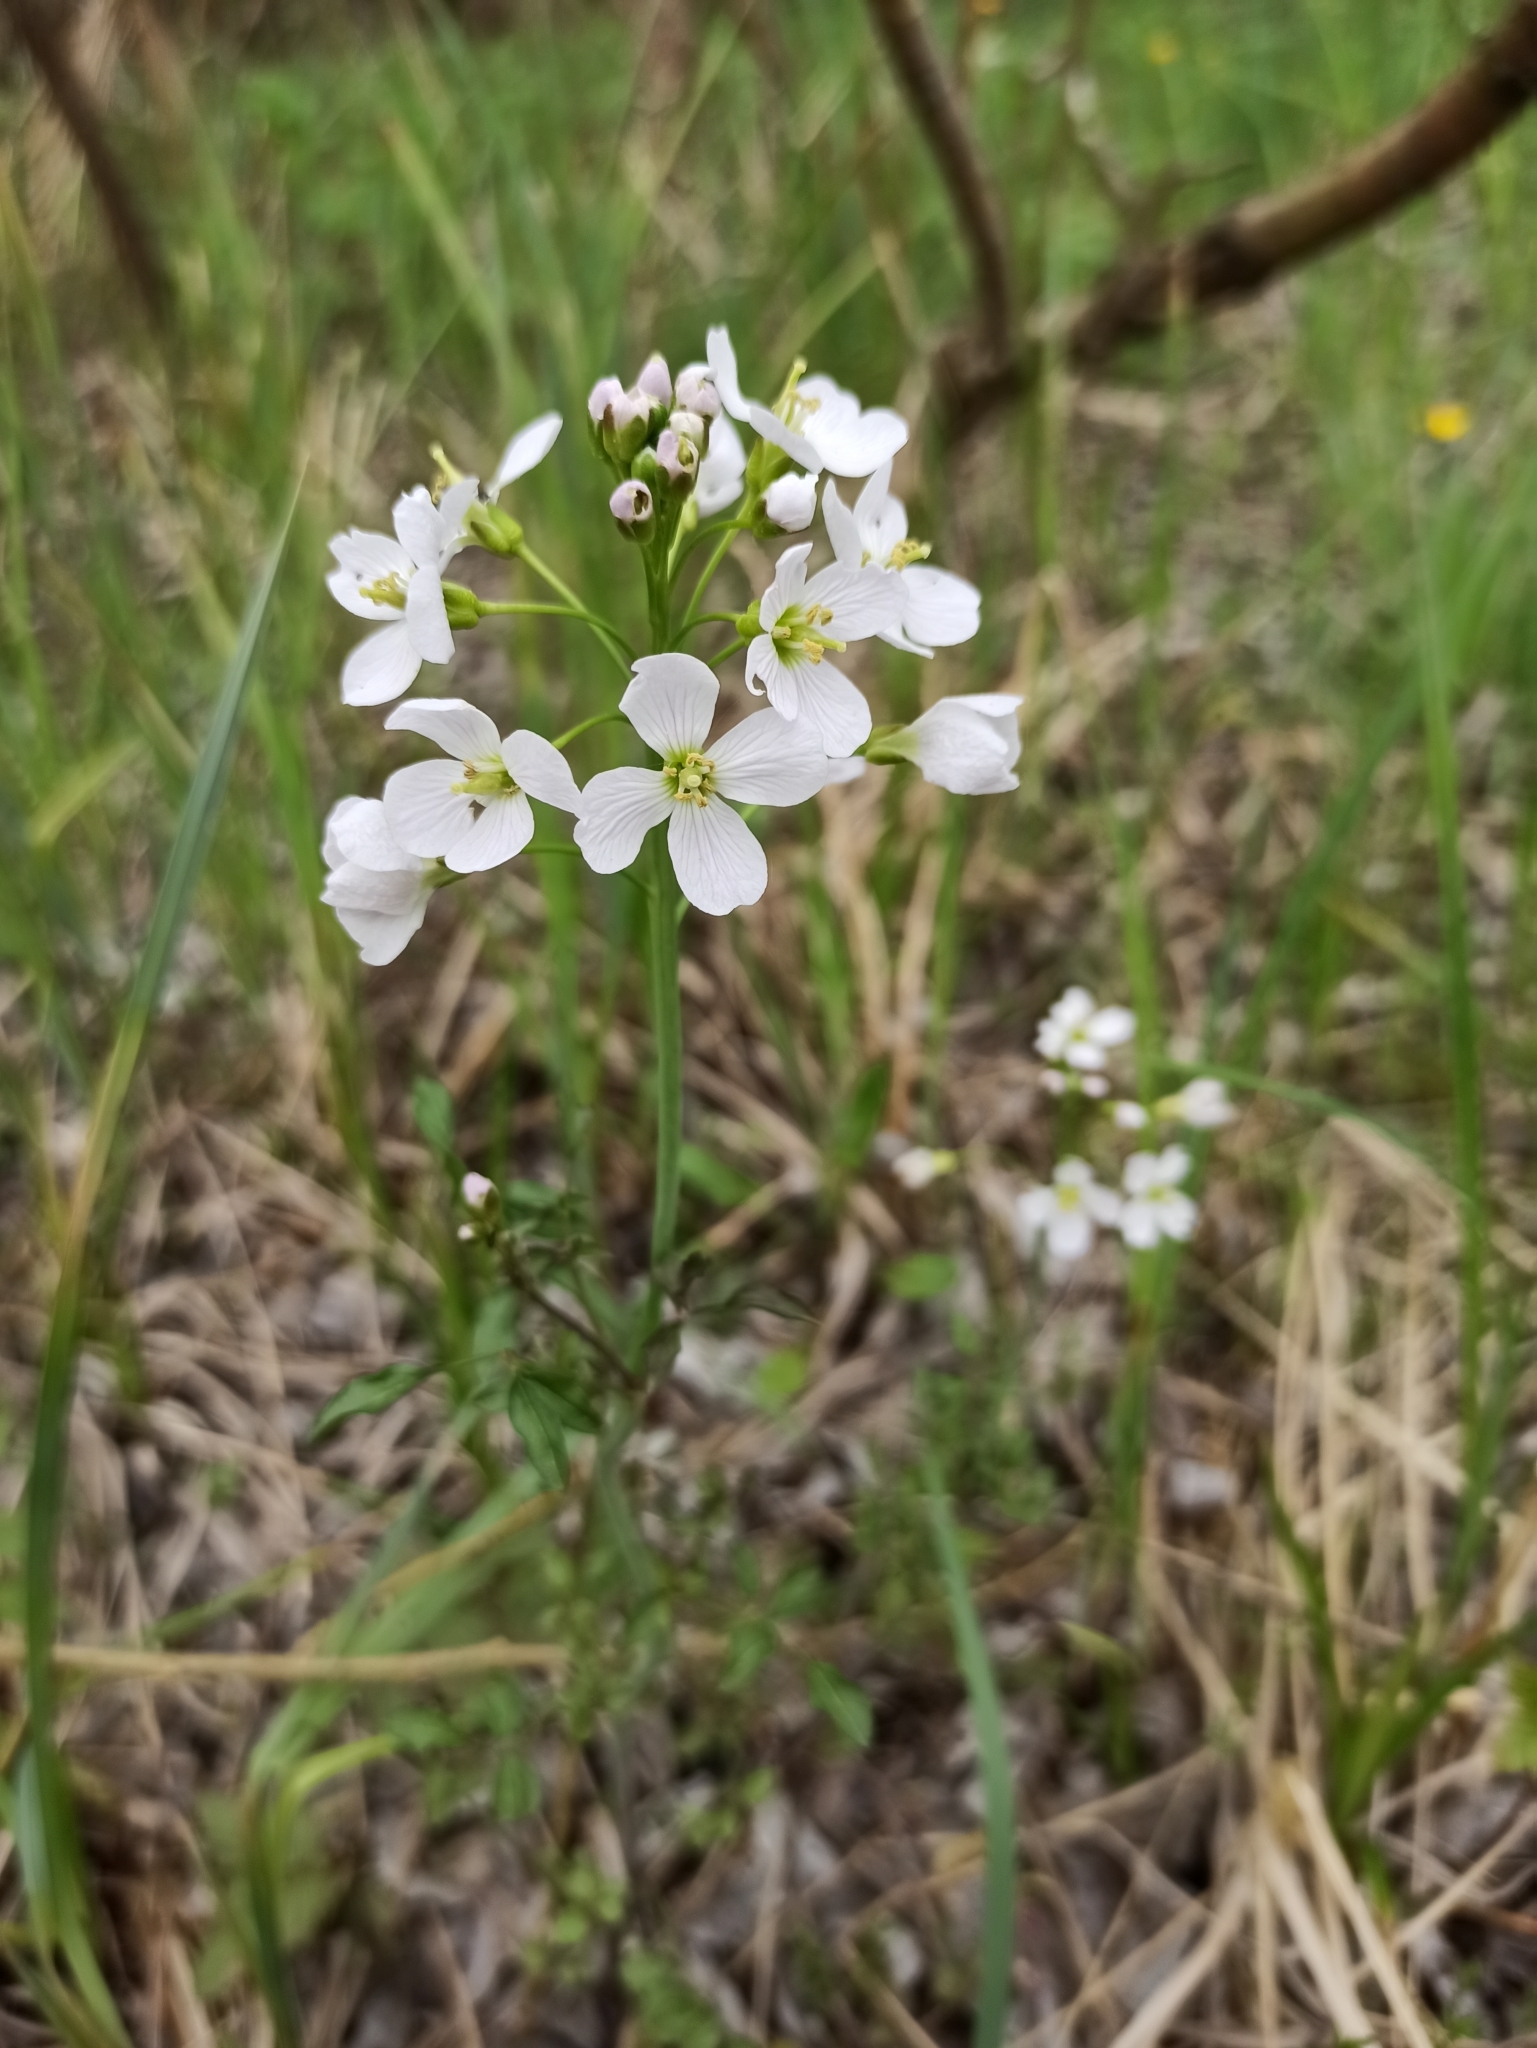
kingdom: Plantae
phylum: Tracheophyta
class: Magnoliopsida
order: Brassicales
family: Brassicaceae
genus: Cardamine
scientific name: Cardamine dentata
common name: Toothed bittercress
